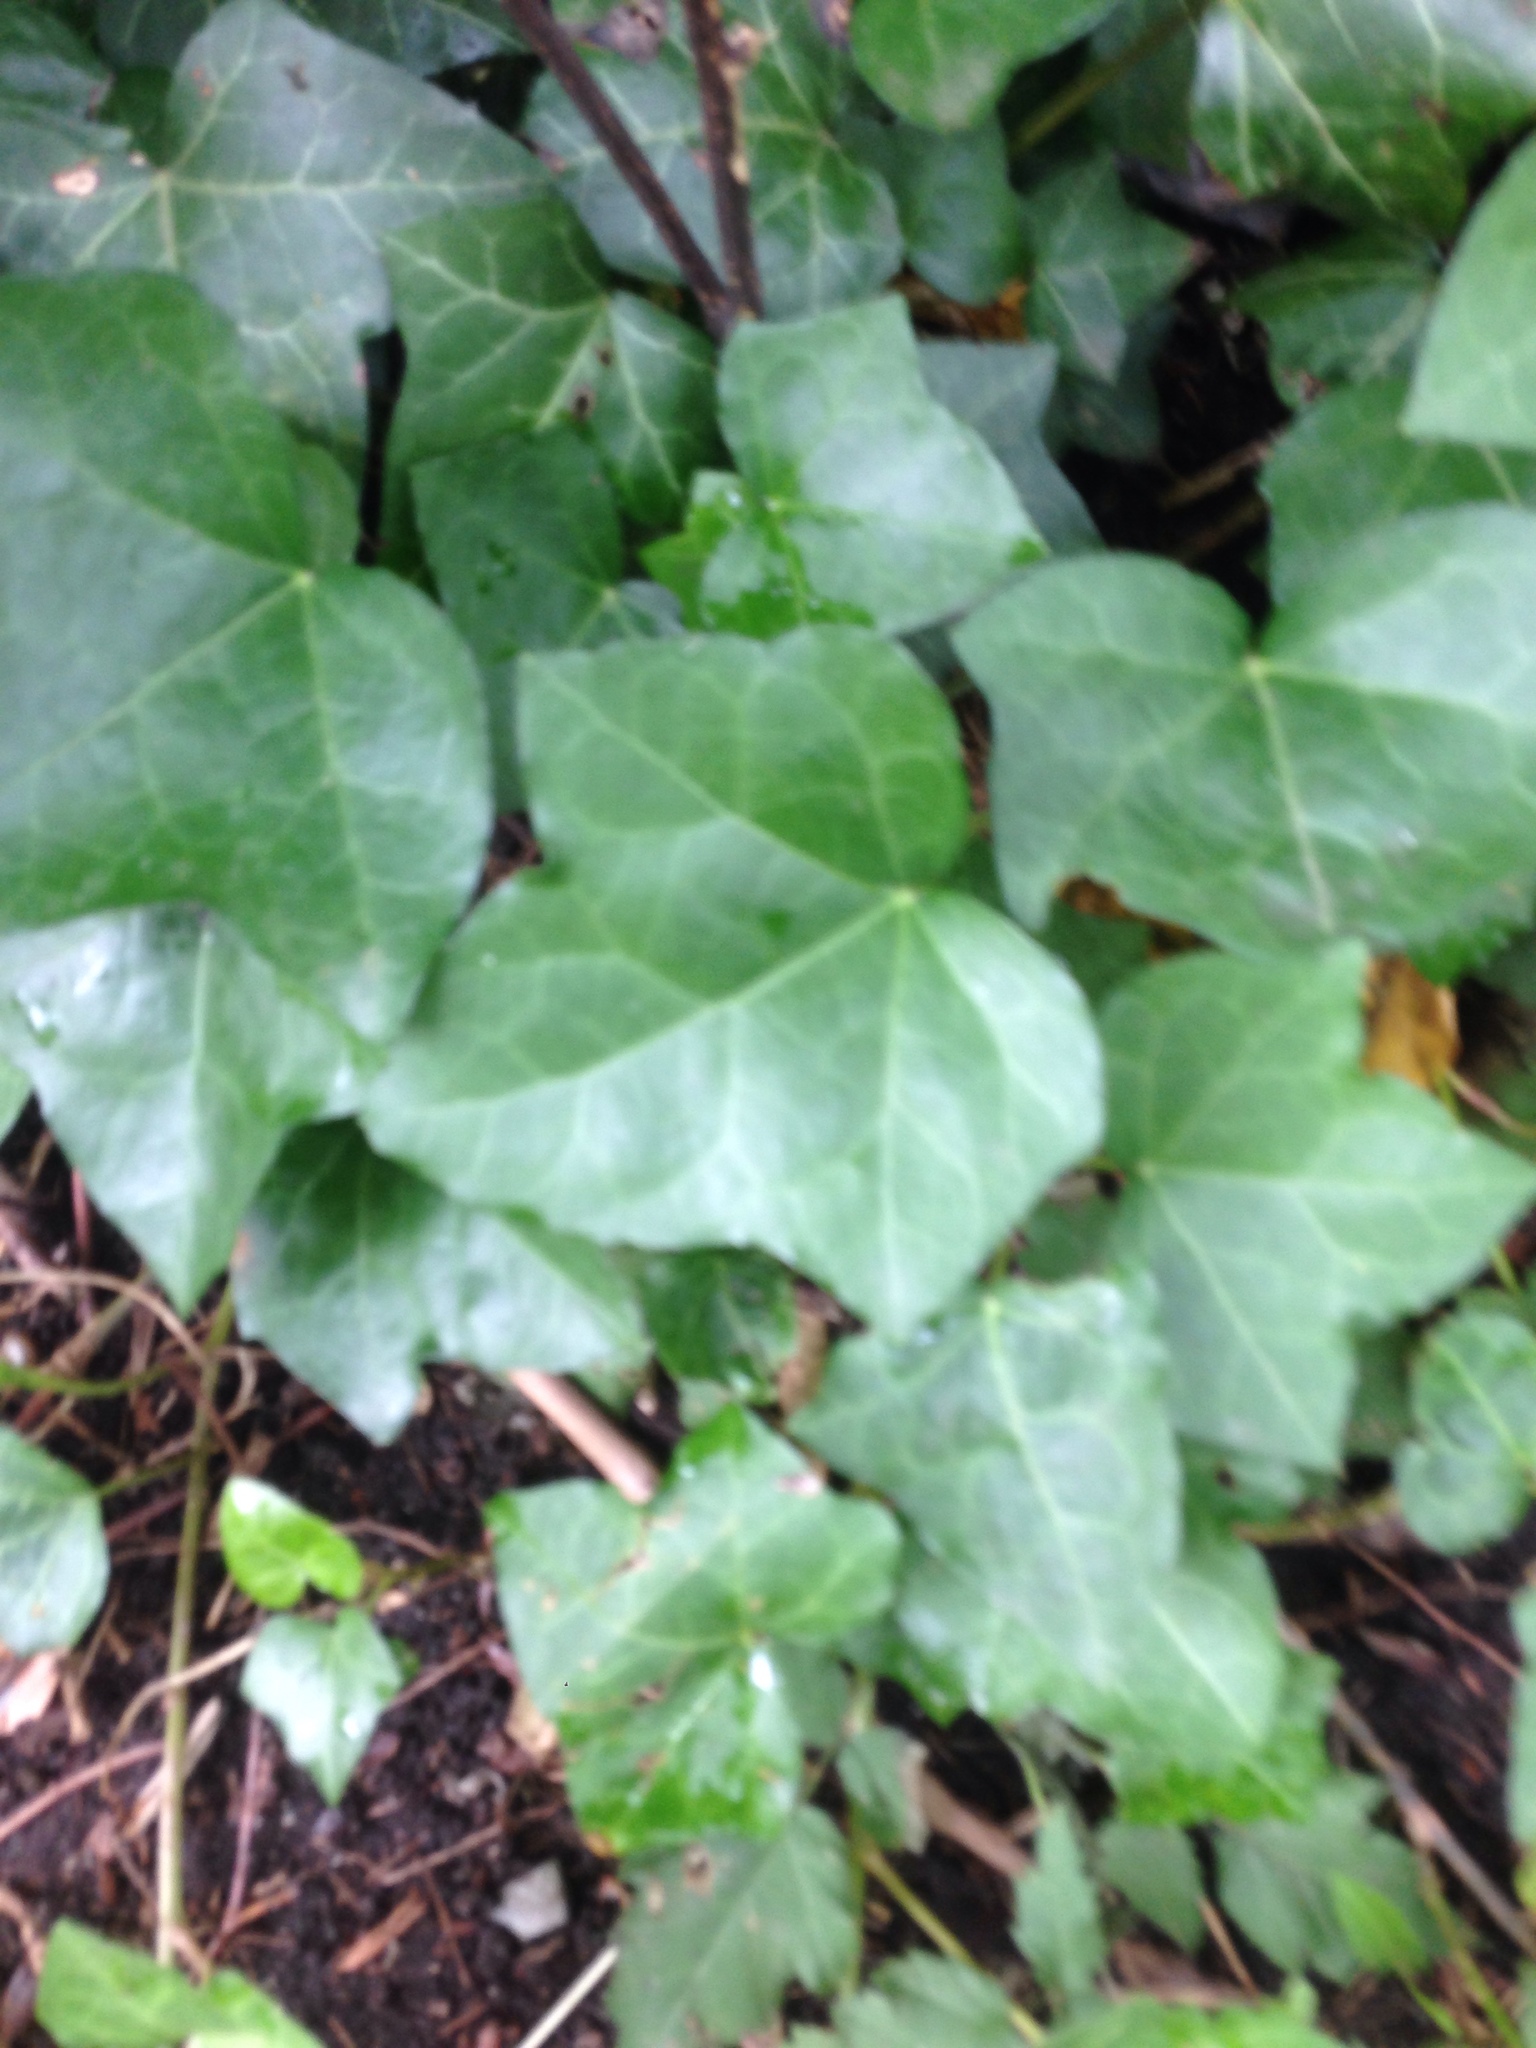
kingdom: Plantae
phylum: Tracheophyta
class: Magnoliopsida
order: Apiales
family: Araliaceae
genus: Hedera
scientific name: Hedera helix
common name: Ivy
